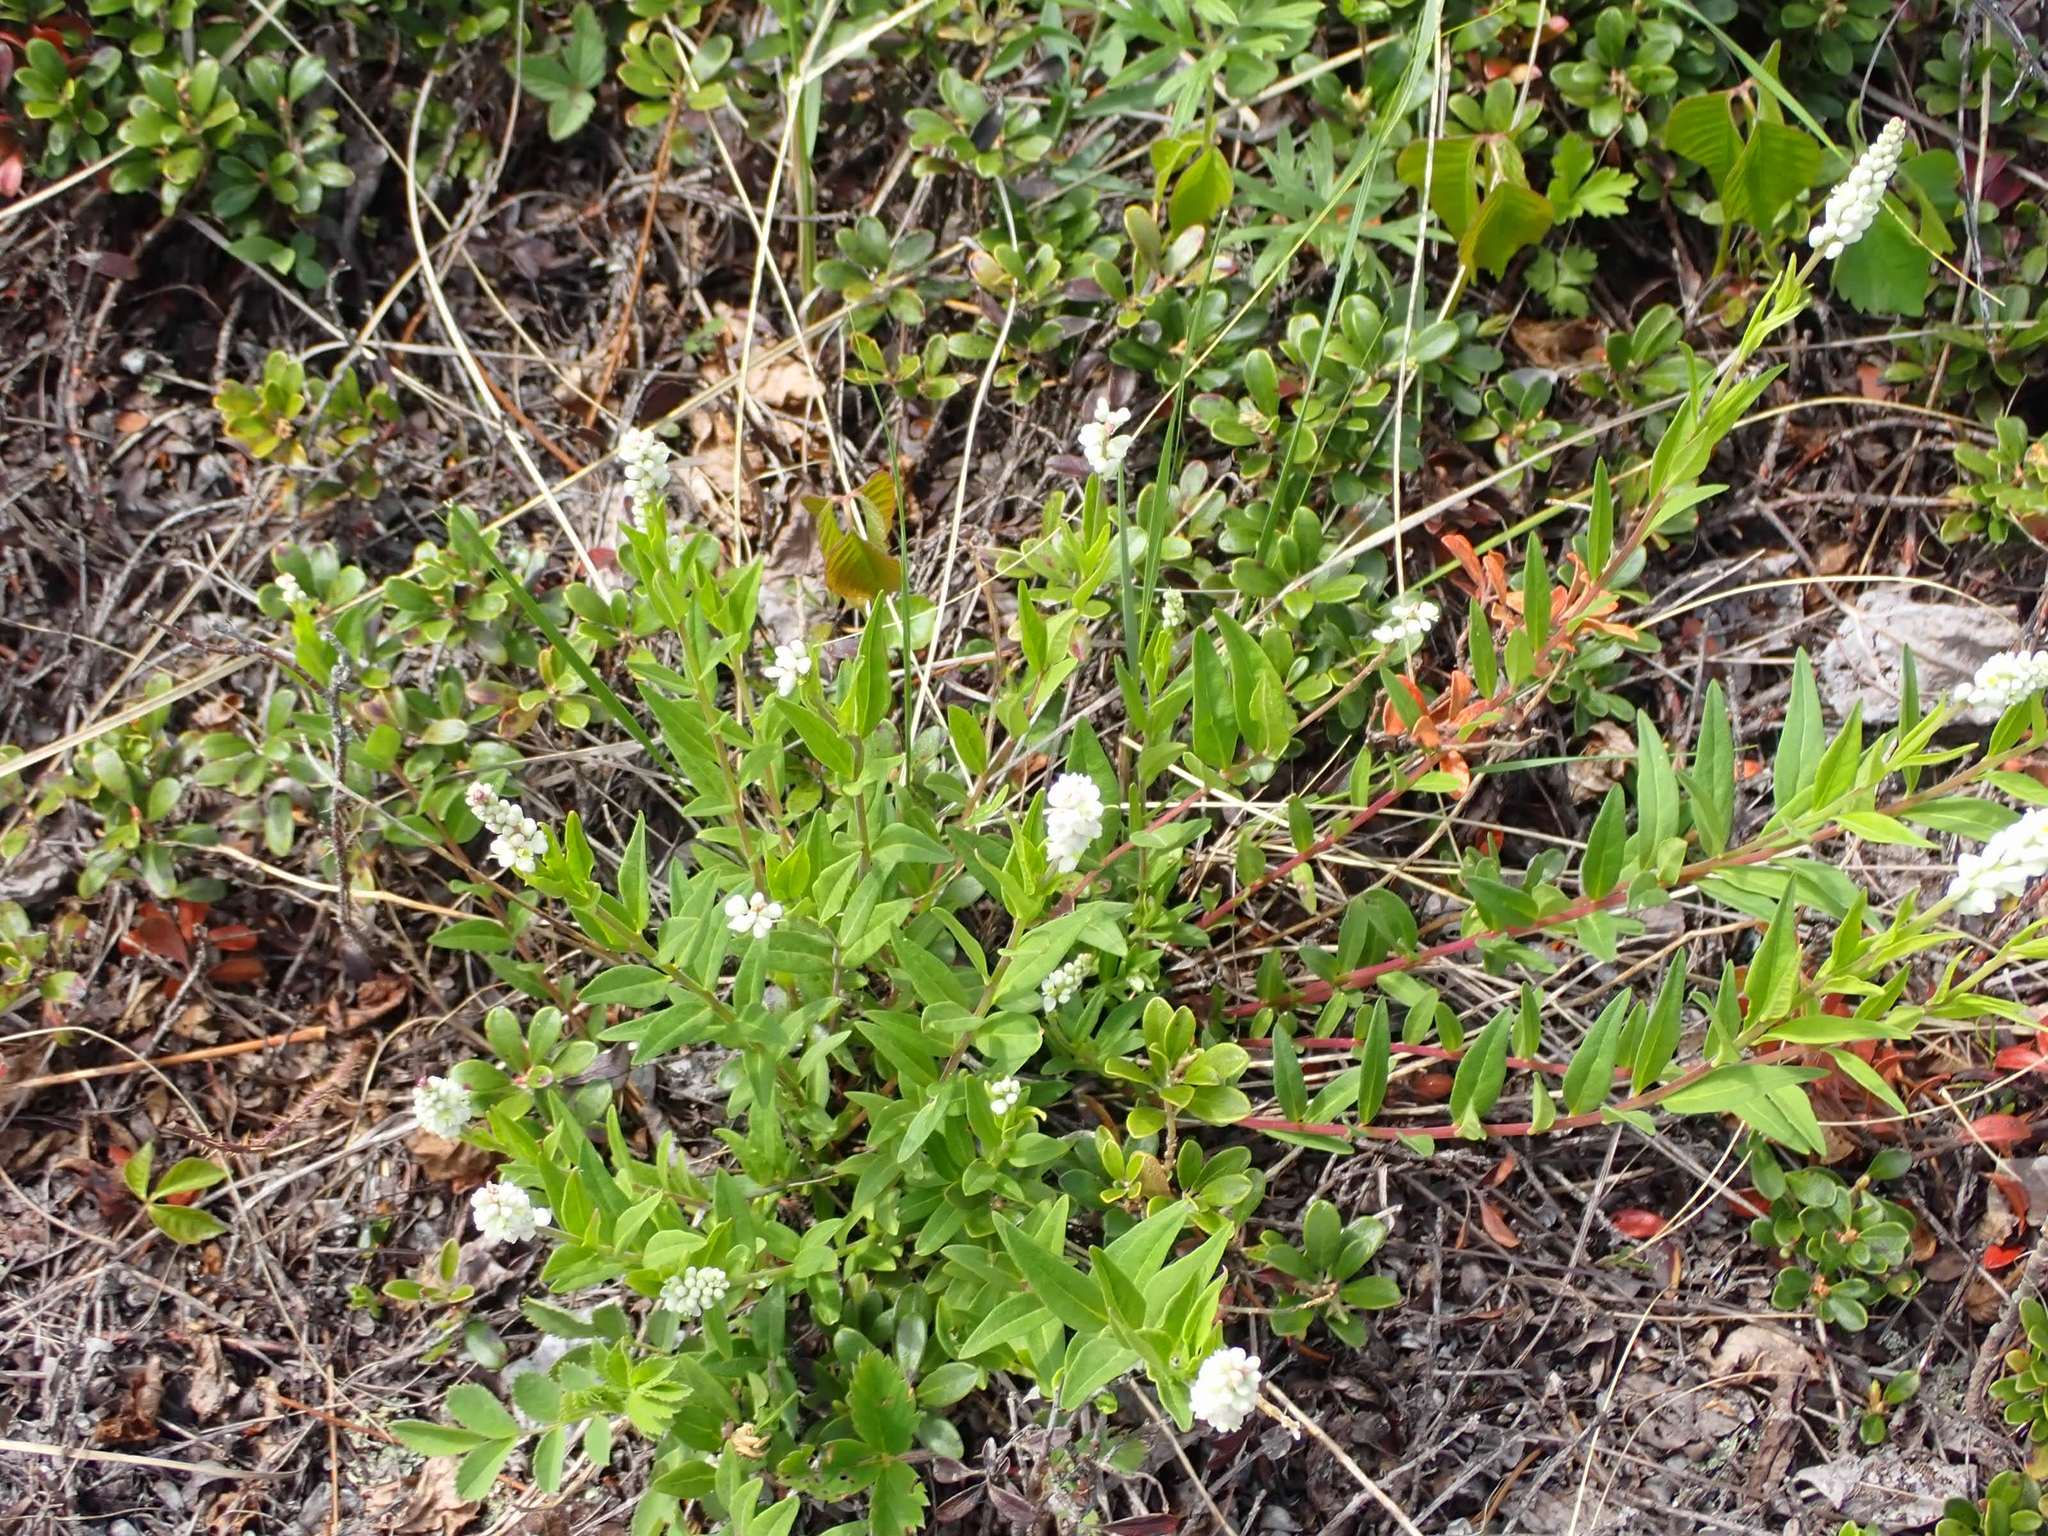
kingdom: Plantae
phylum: Tracheophyta
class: Magnoliopsida
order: Fabales
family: Polygalaceae
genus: Polygala
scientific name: Polygala senega
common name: Seneca snakeroot
